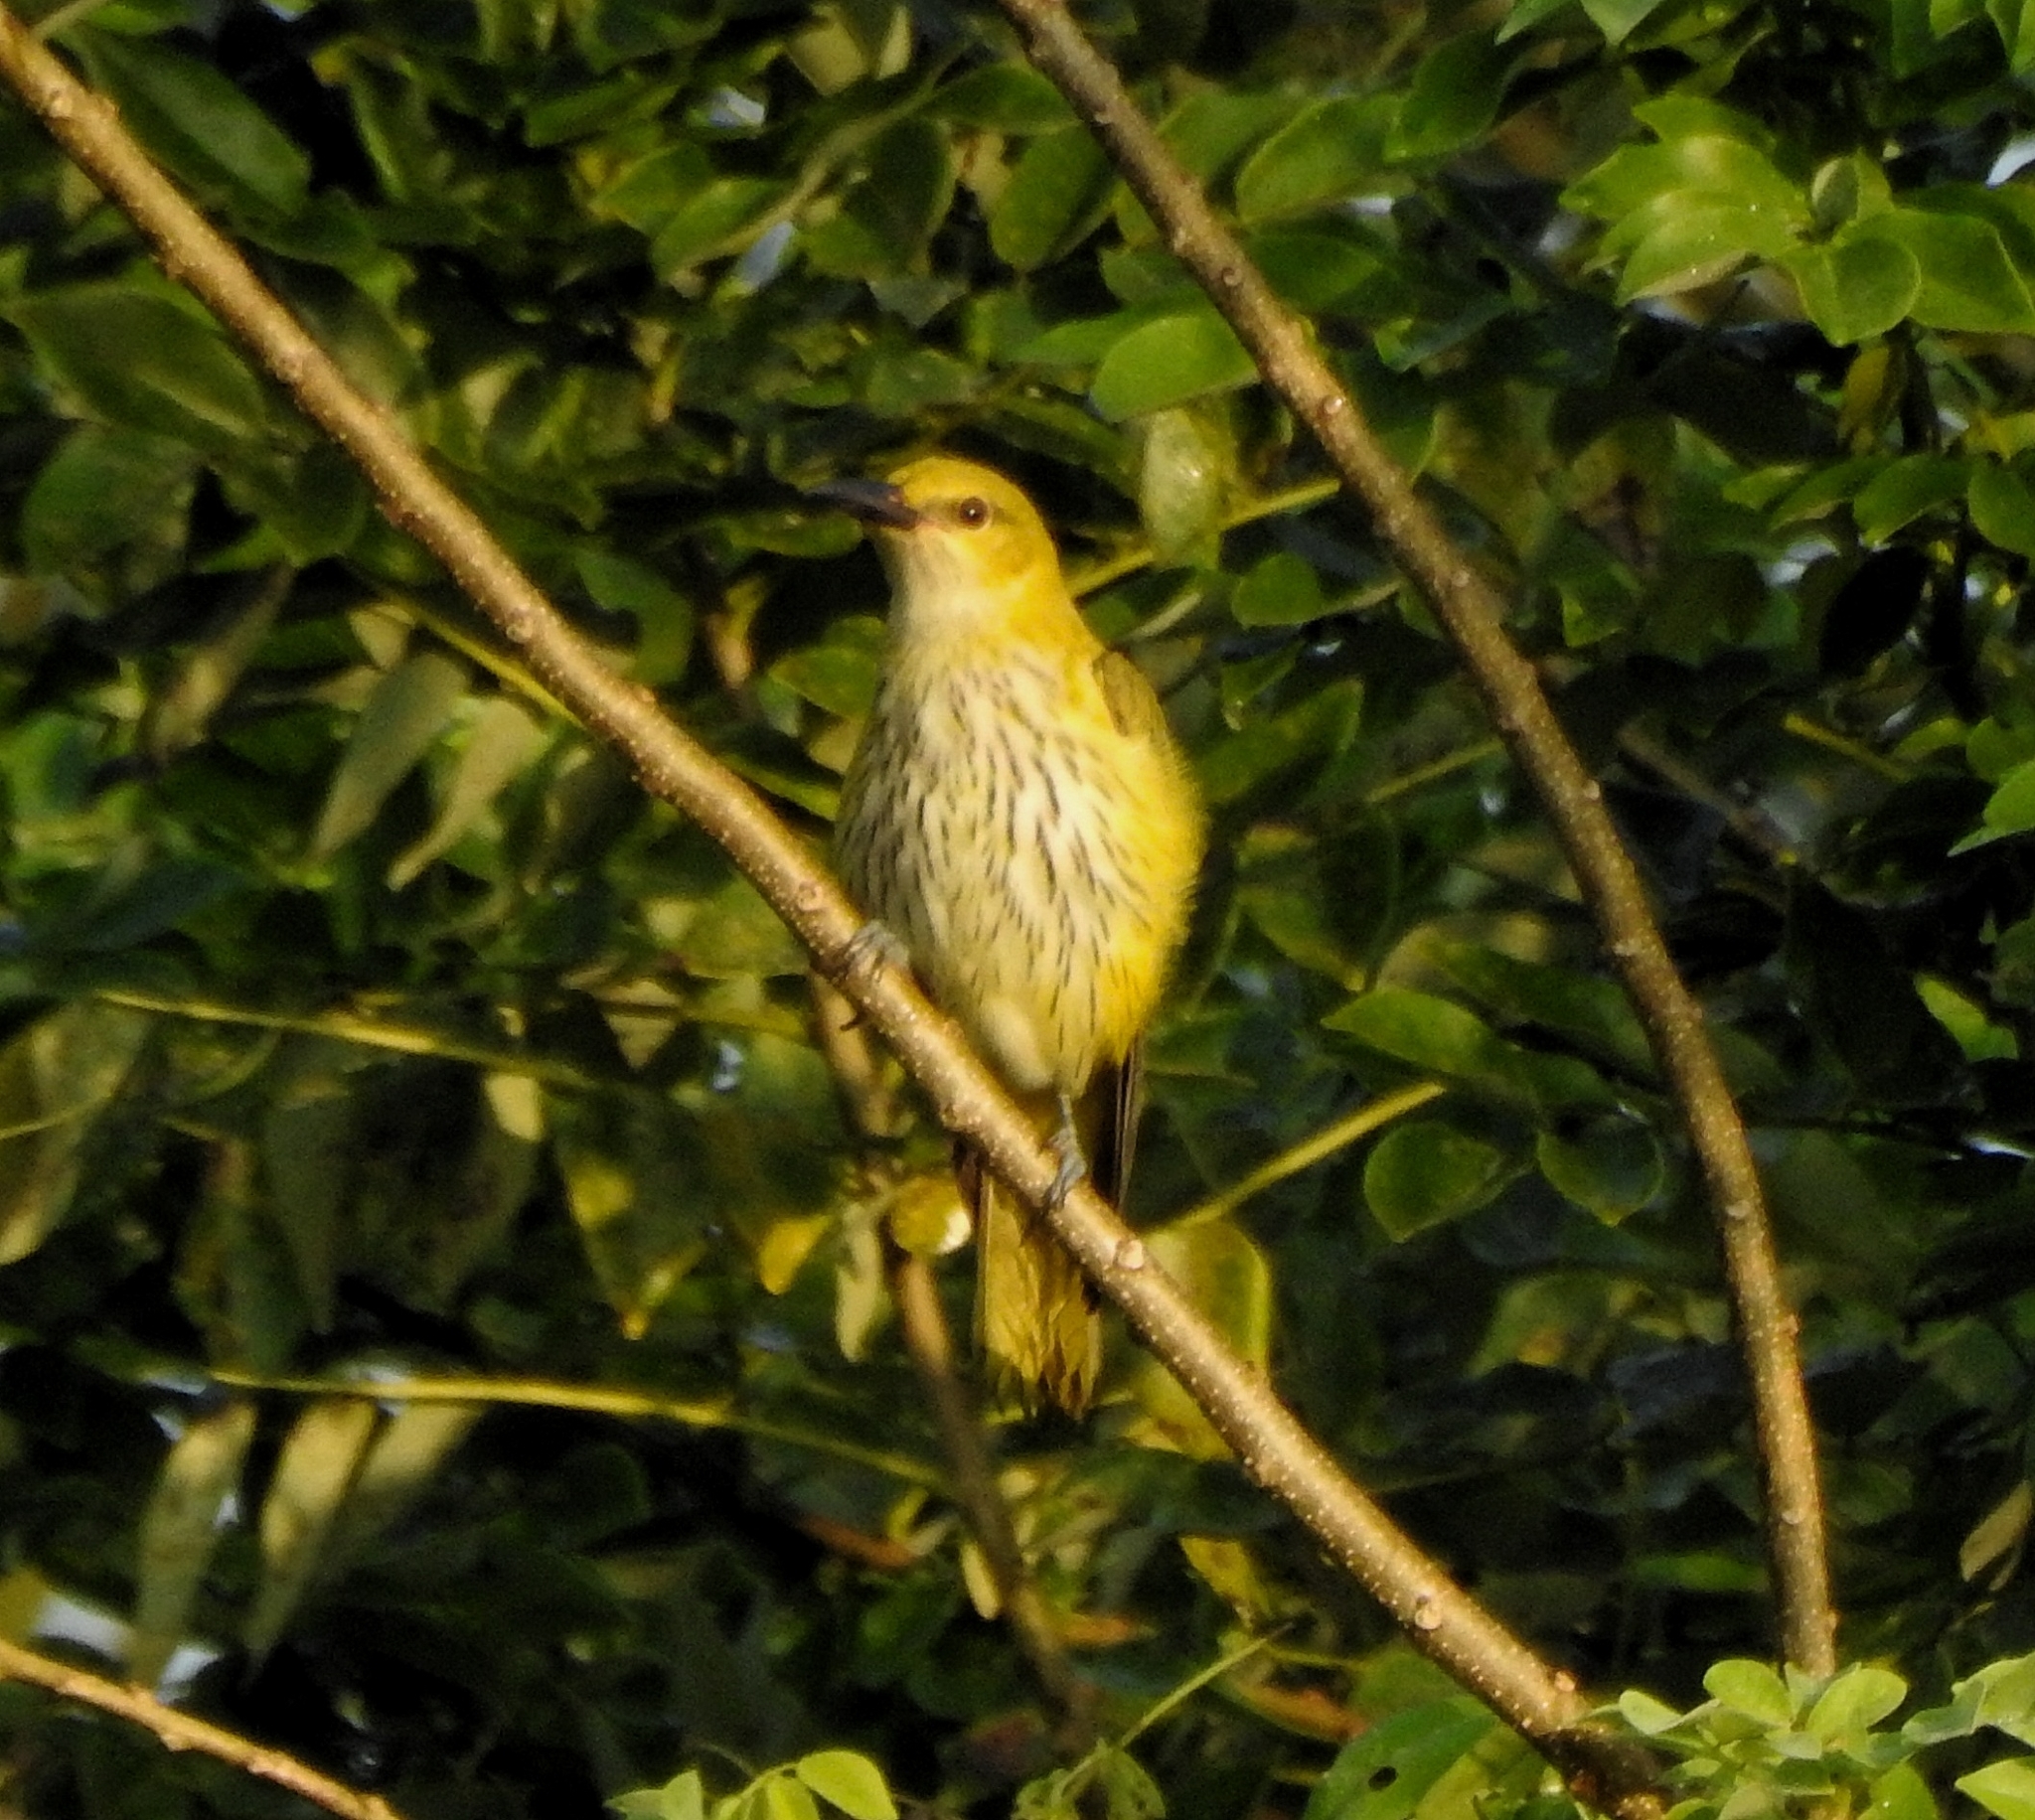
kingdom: Animalia
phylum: Chordata
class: Aves
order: Passeriformes
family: Oriolidae
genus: Oriolus
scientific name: Oriolus kundoo
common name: Indian golden oriole
